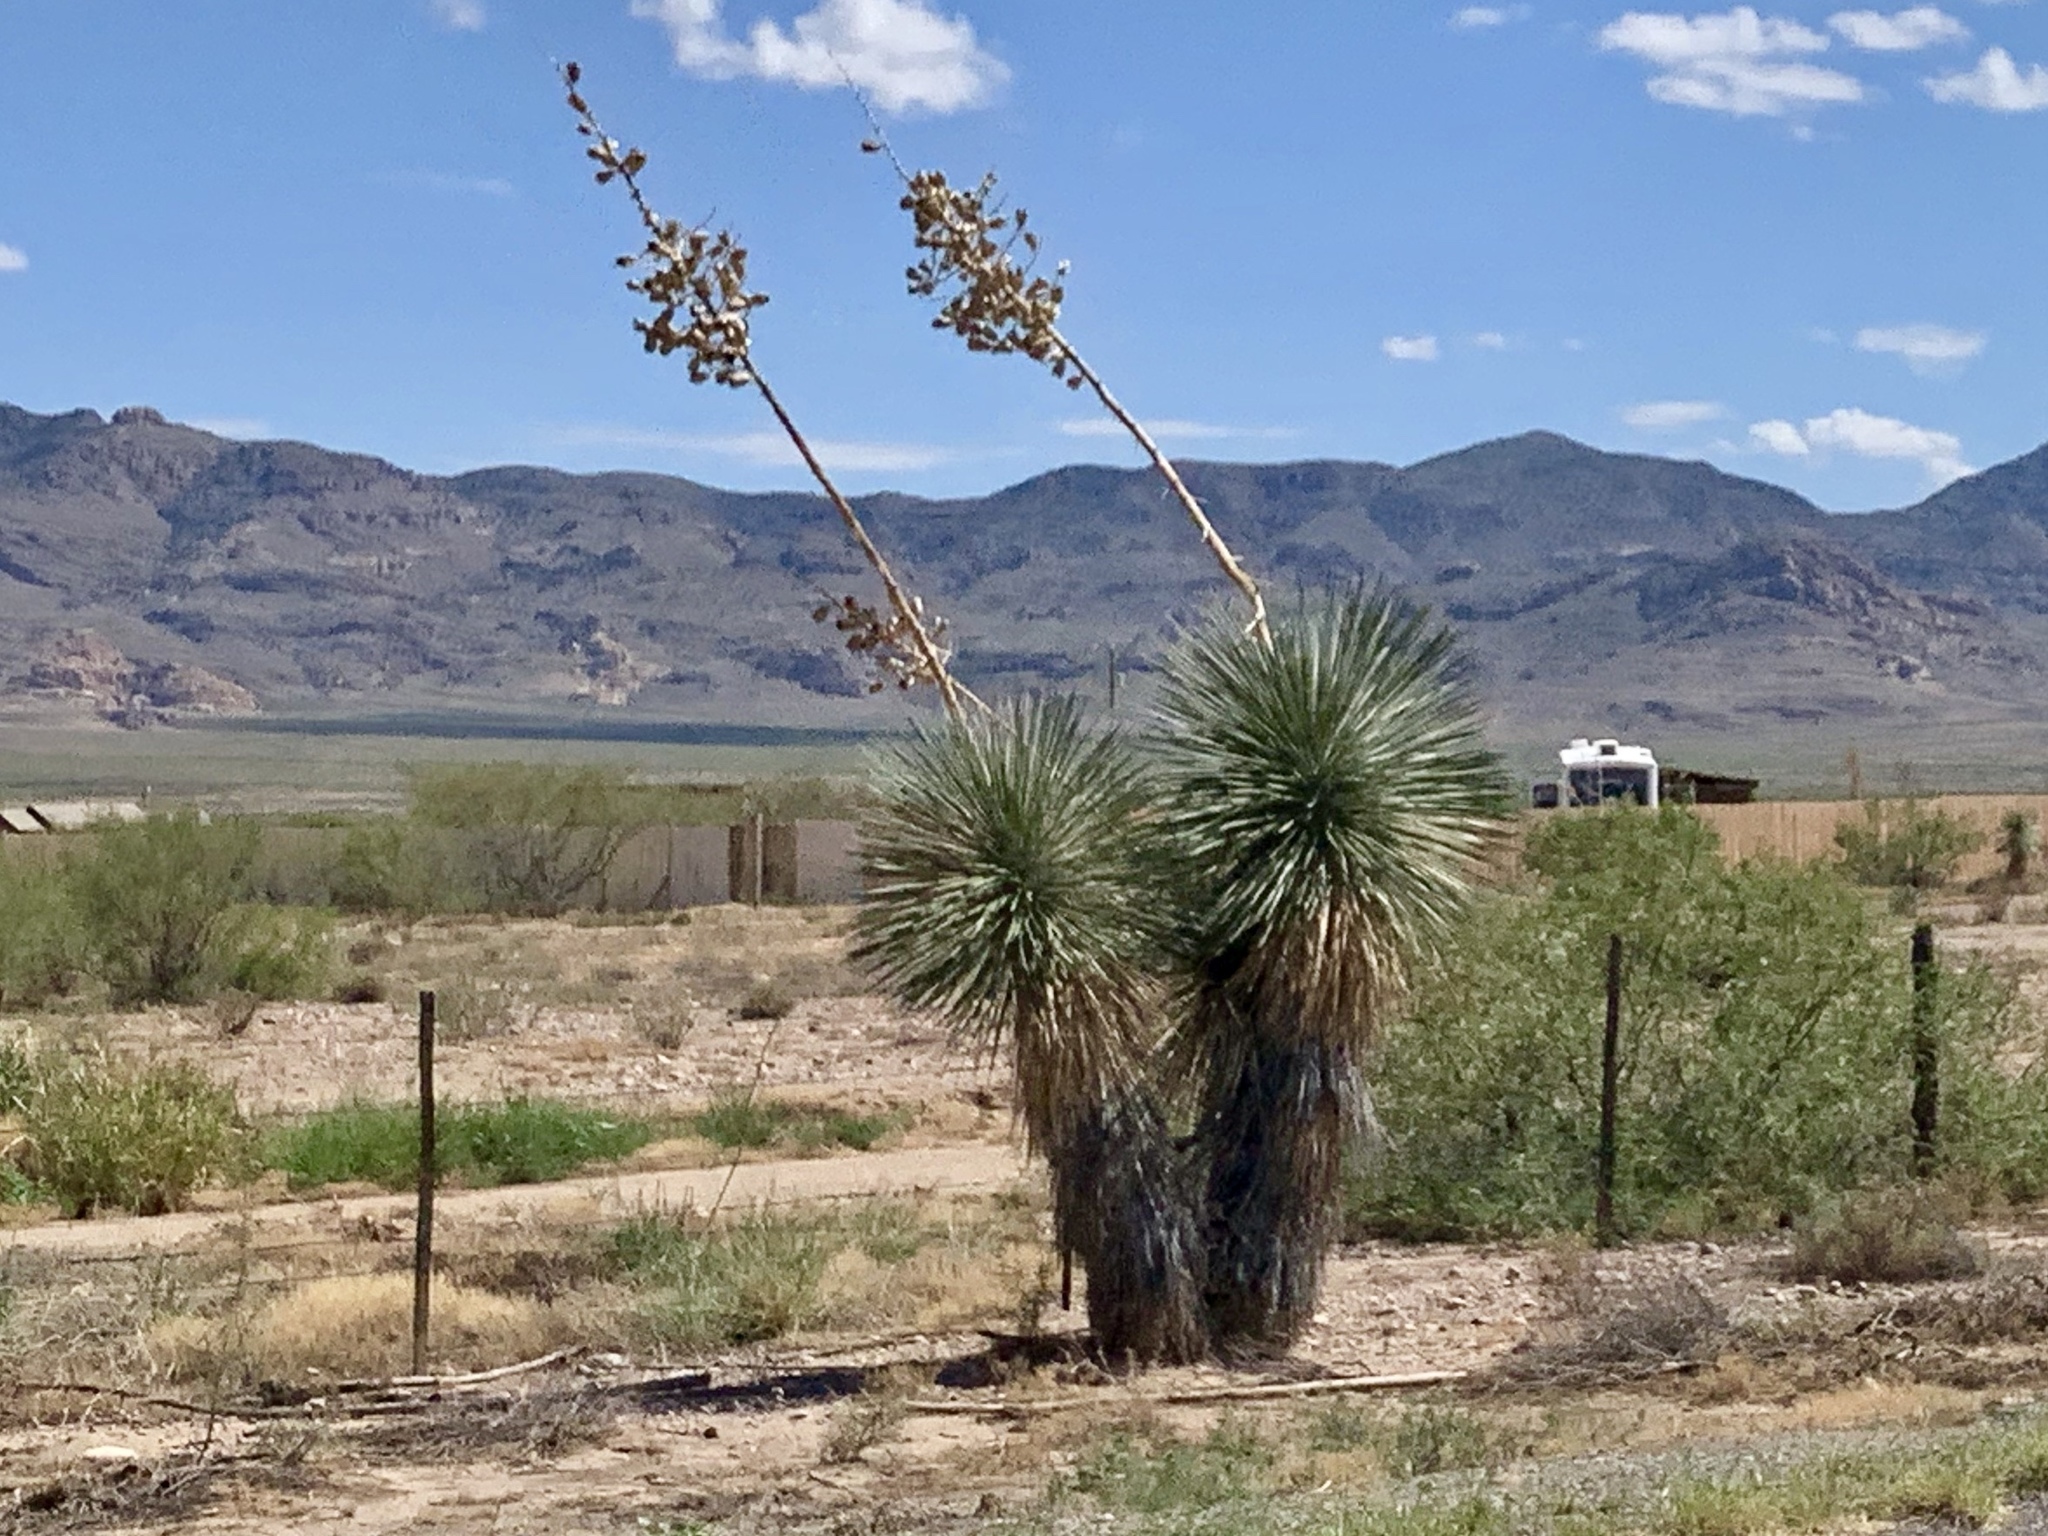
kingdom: Plantae
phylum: Tracheophyta
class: Liliopsida
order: Asparagales
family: Asparagaceae
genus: Yucca
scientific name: Yucca elata
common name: Palmella
